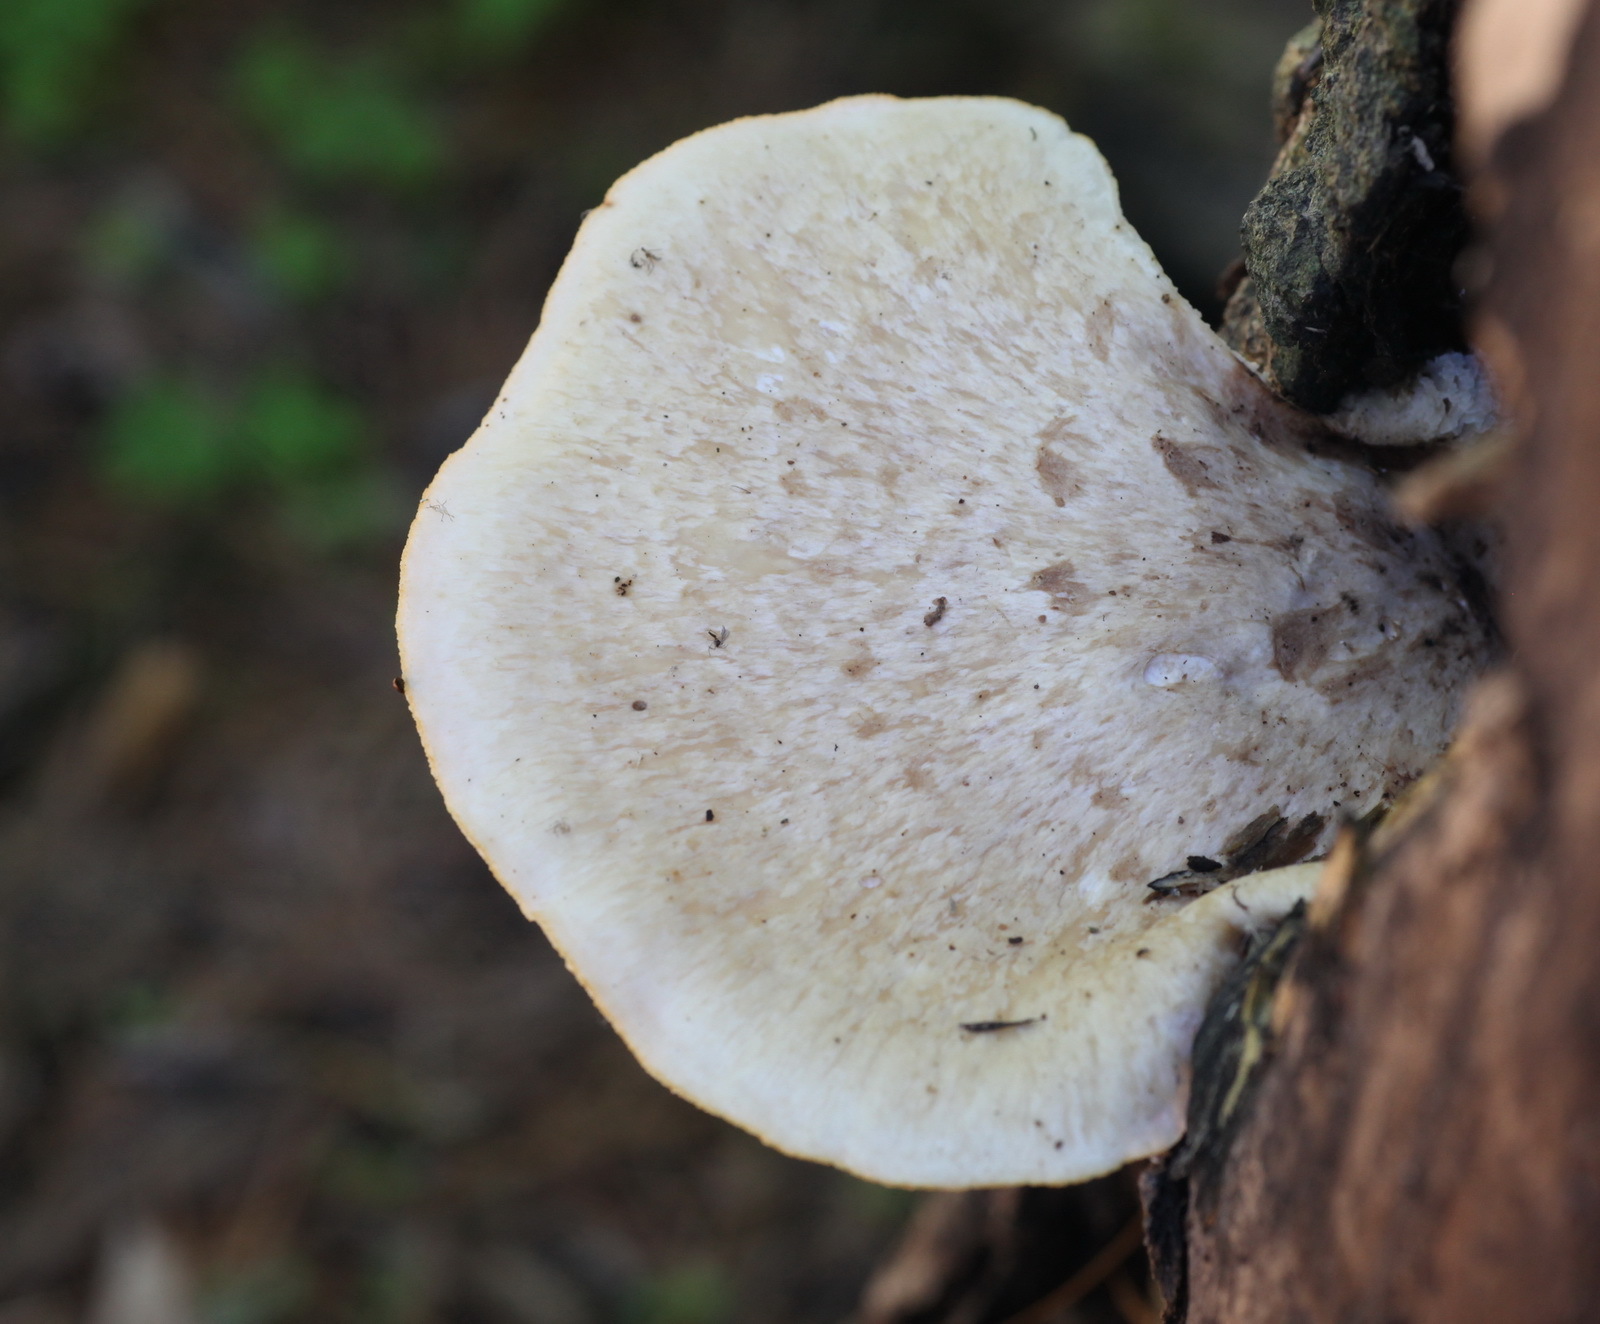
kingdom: Fungi
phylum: Basidiomycota
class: Agaricomycetes
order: Polyporales
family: Polyporaceae
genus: Cerioporus
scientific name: Cerioporus squamosus
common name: Dryad's saddle
